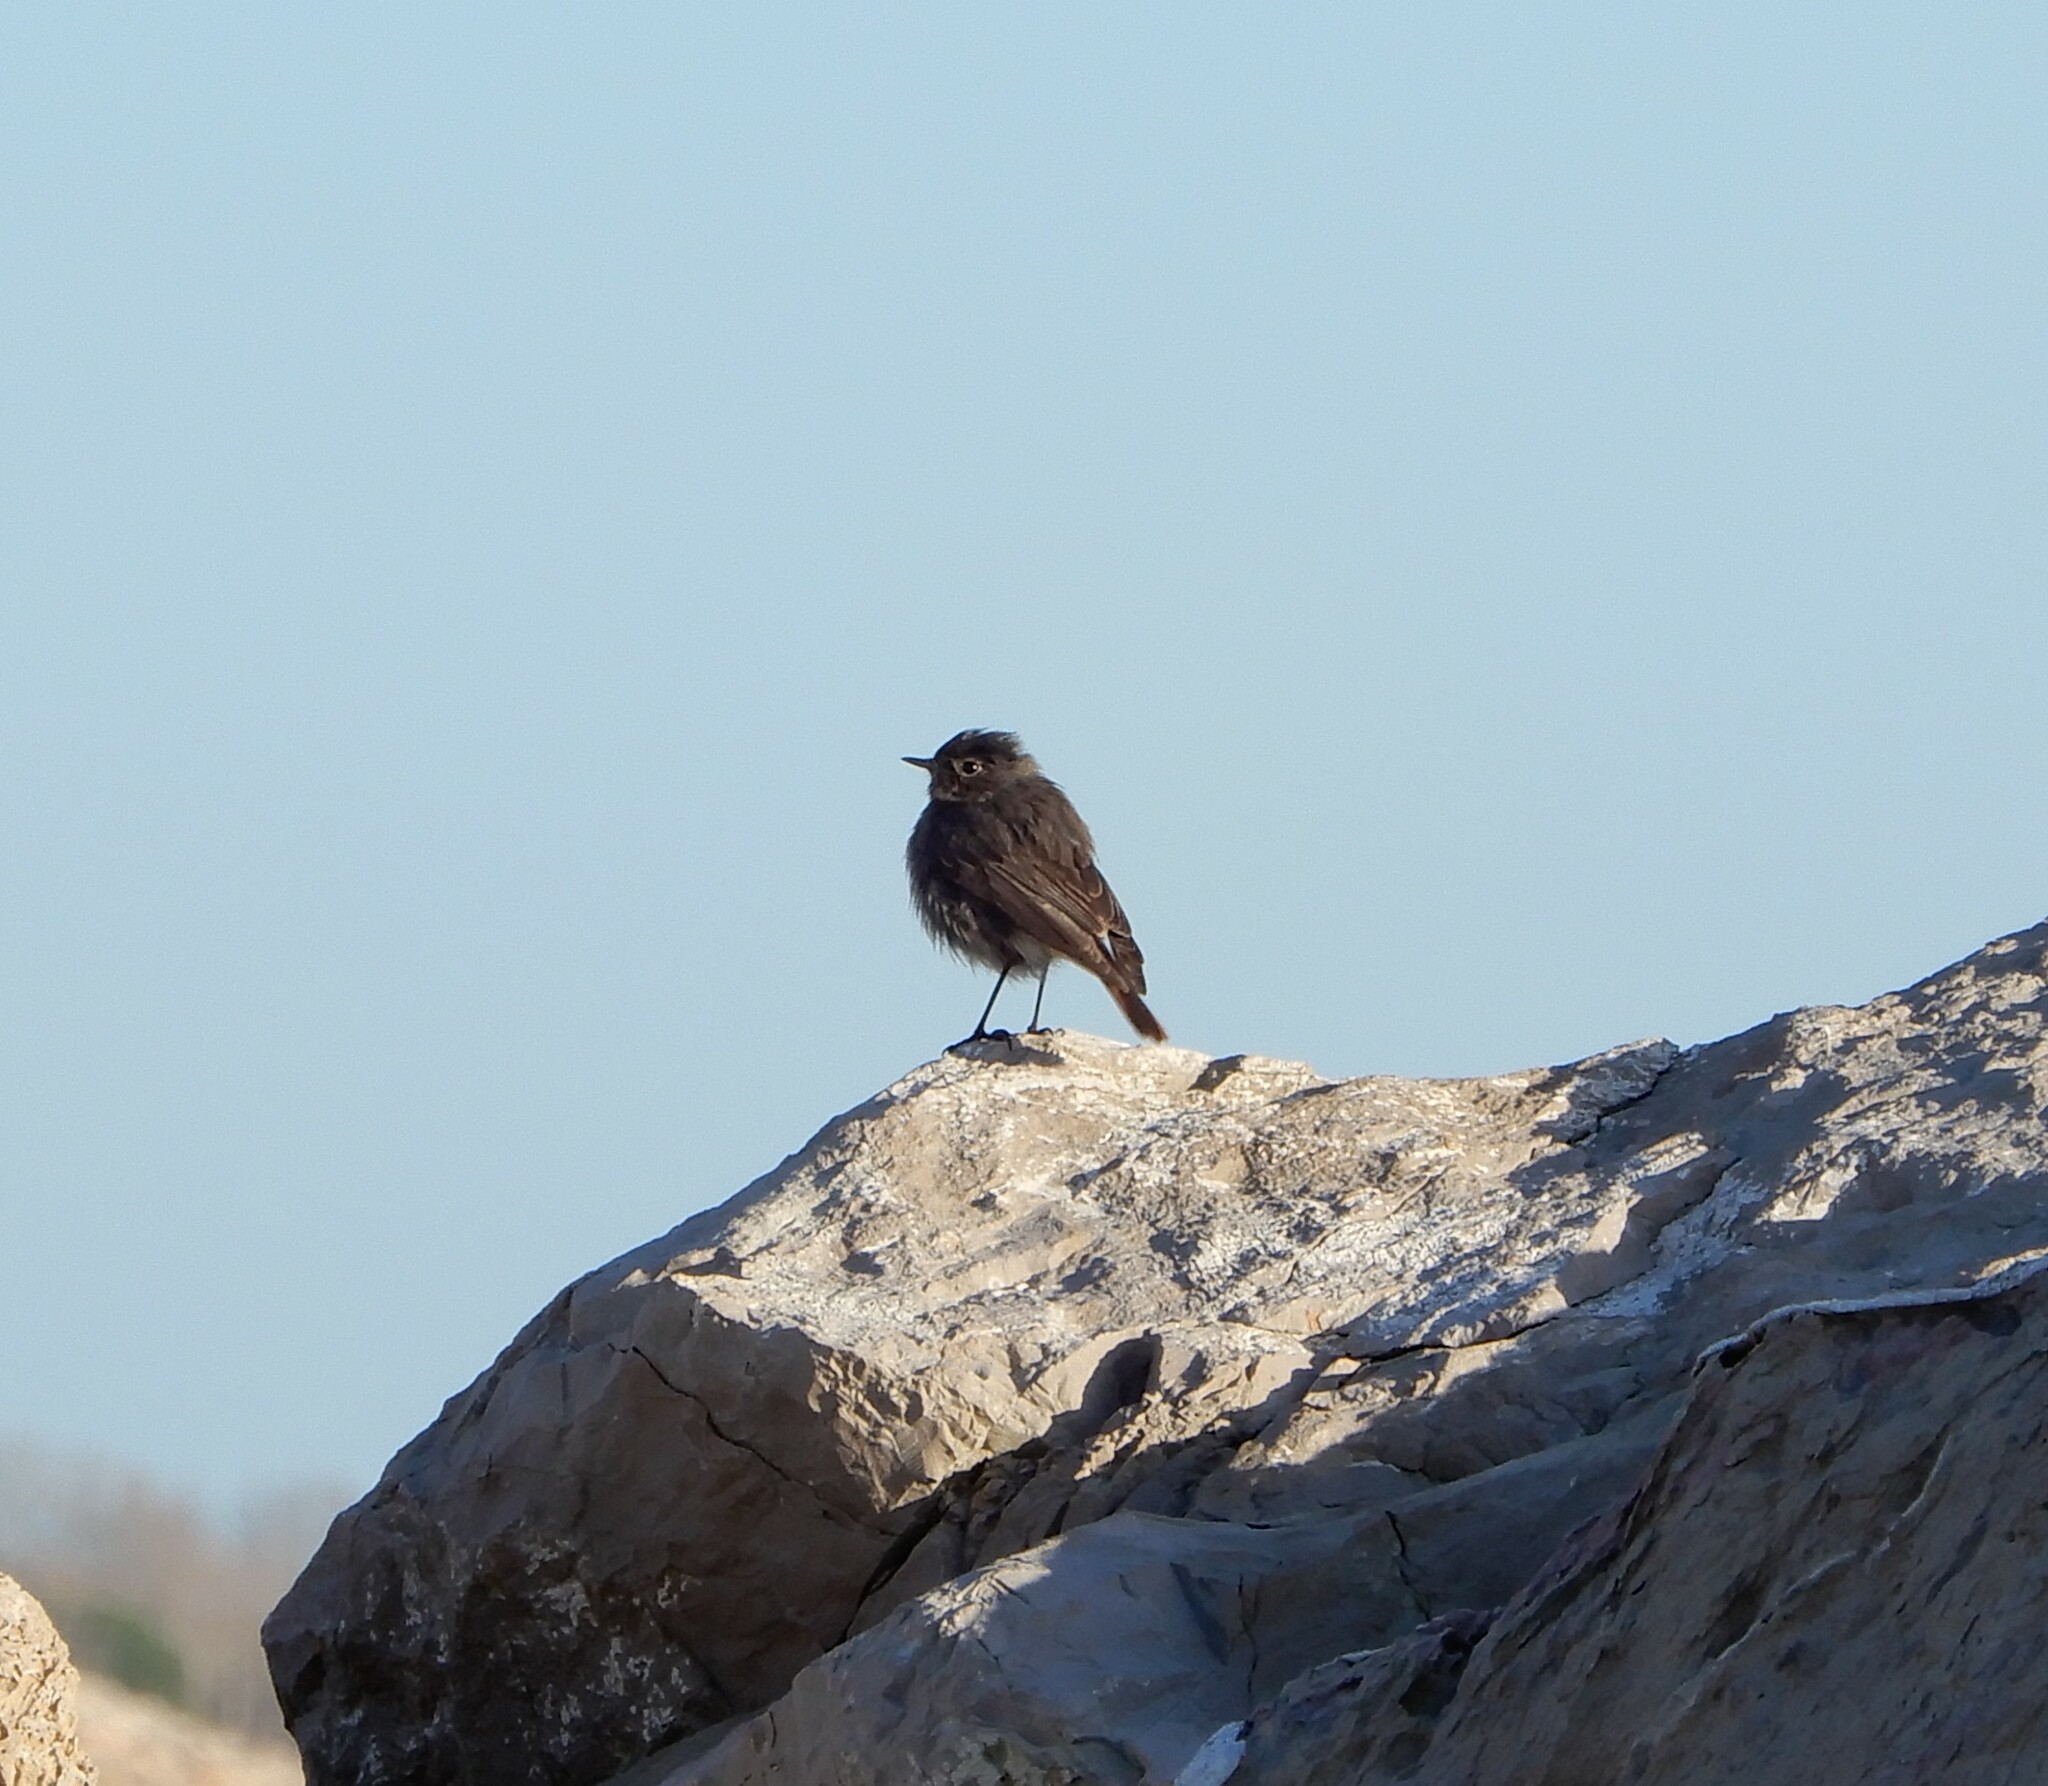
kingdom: Animalia
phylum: Chordata
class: Aves
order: Passeriformes
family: Muscicapidae
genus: Phoenicurus
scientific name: Phoenicurus ochruros
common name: Black redstart
